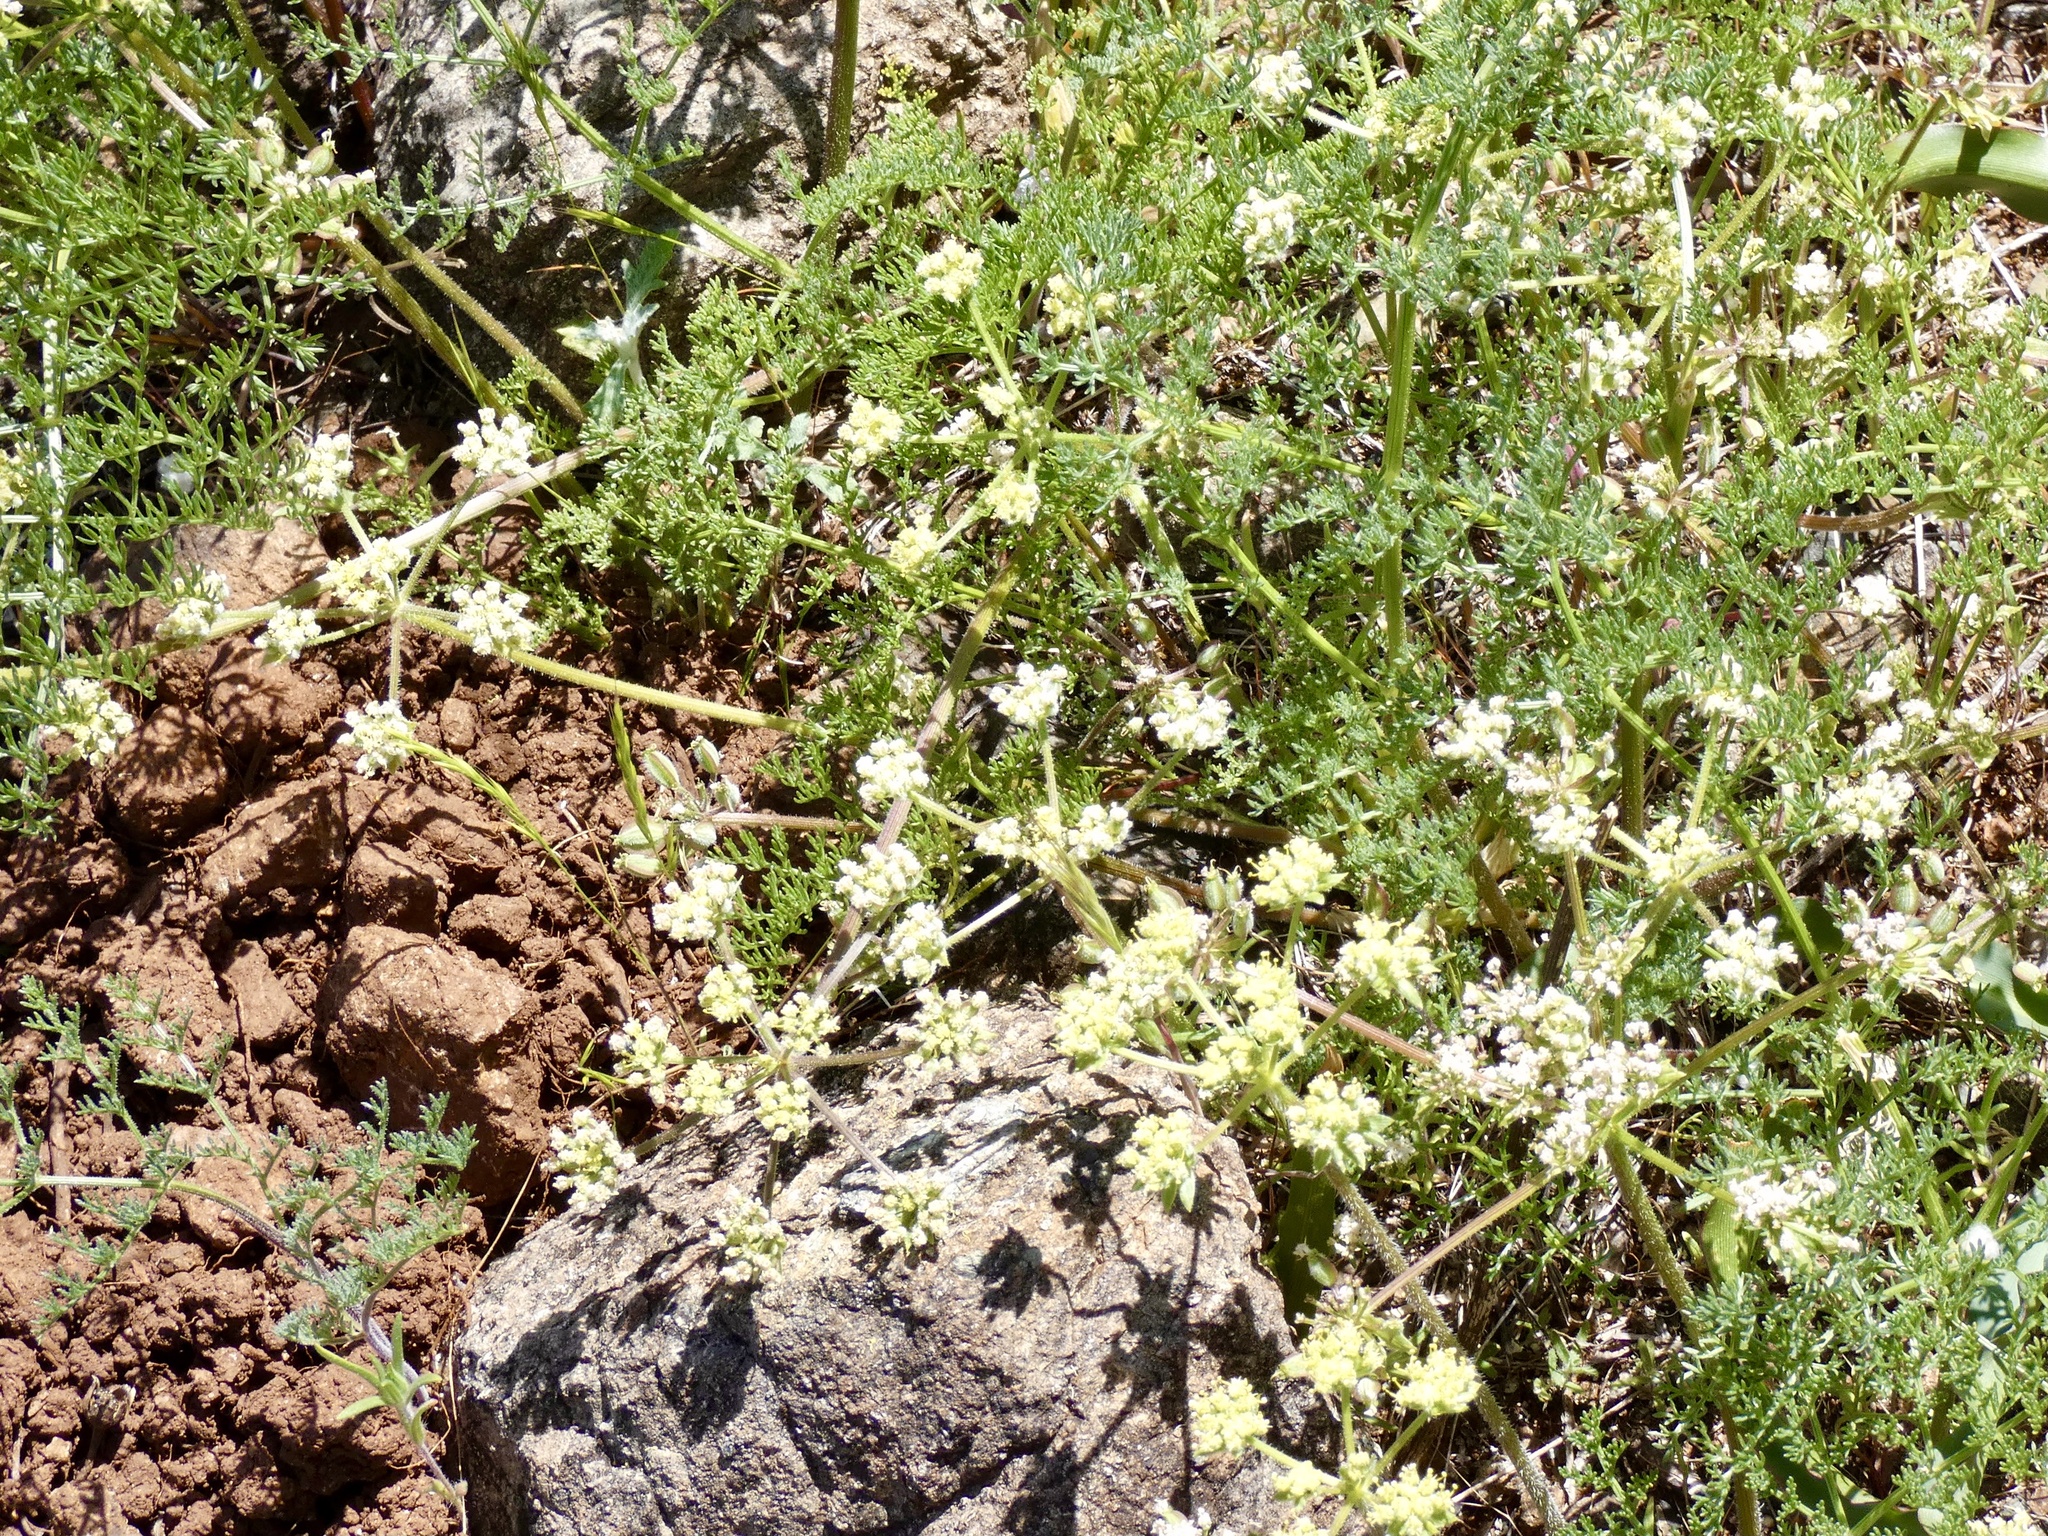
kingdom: Plantae
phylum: Tracheophyta
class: Magnoliopsida
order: Apiales
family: Apiaceae
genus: Lomatium
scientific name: Lomatium dasycarpum
